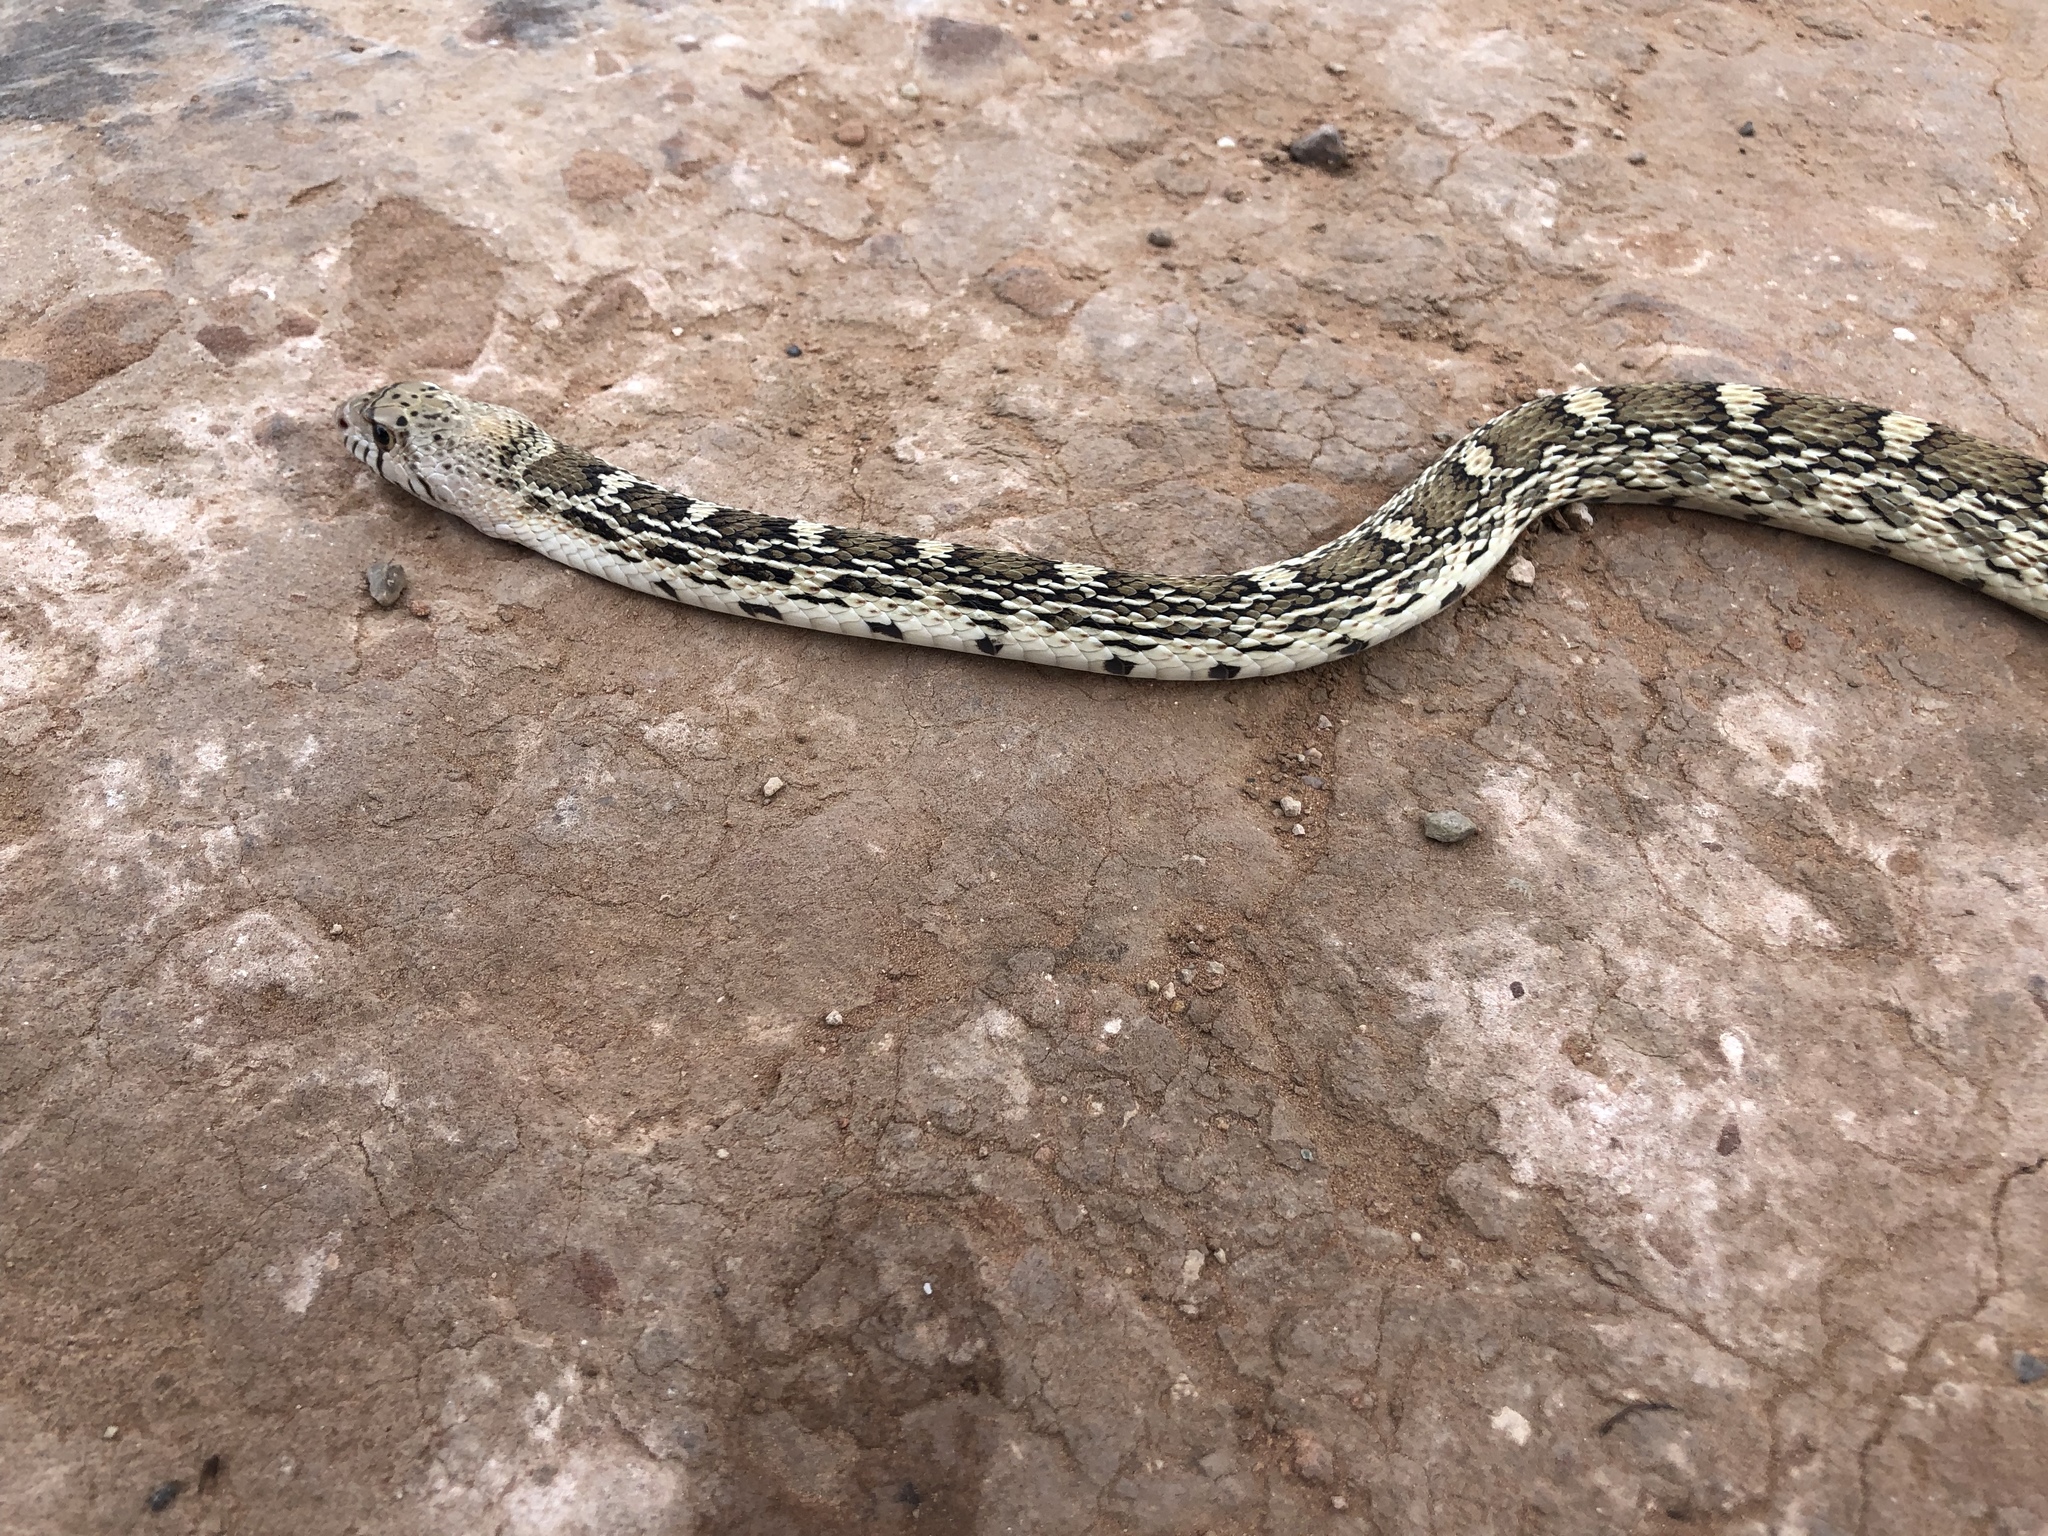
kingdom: Animalia
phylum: Chordata
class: Squamata
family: Colubridae
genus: Pituophis
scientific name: Pituophis catenifer
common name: Gopher snake
